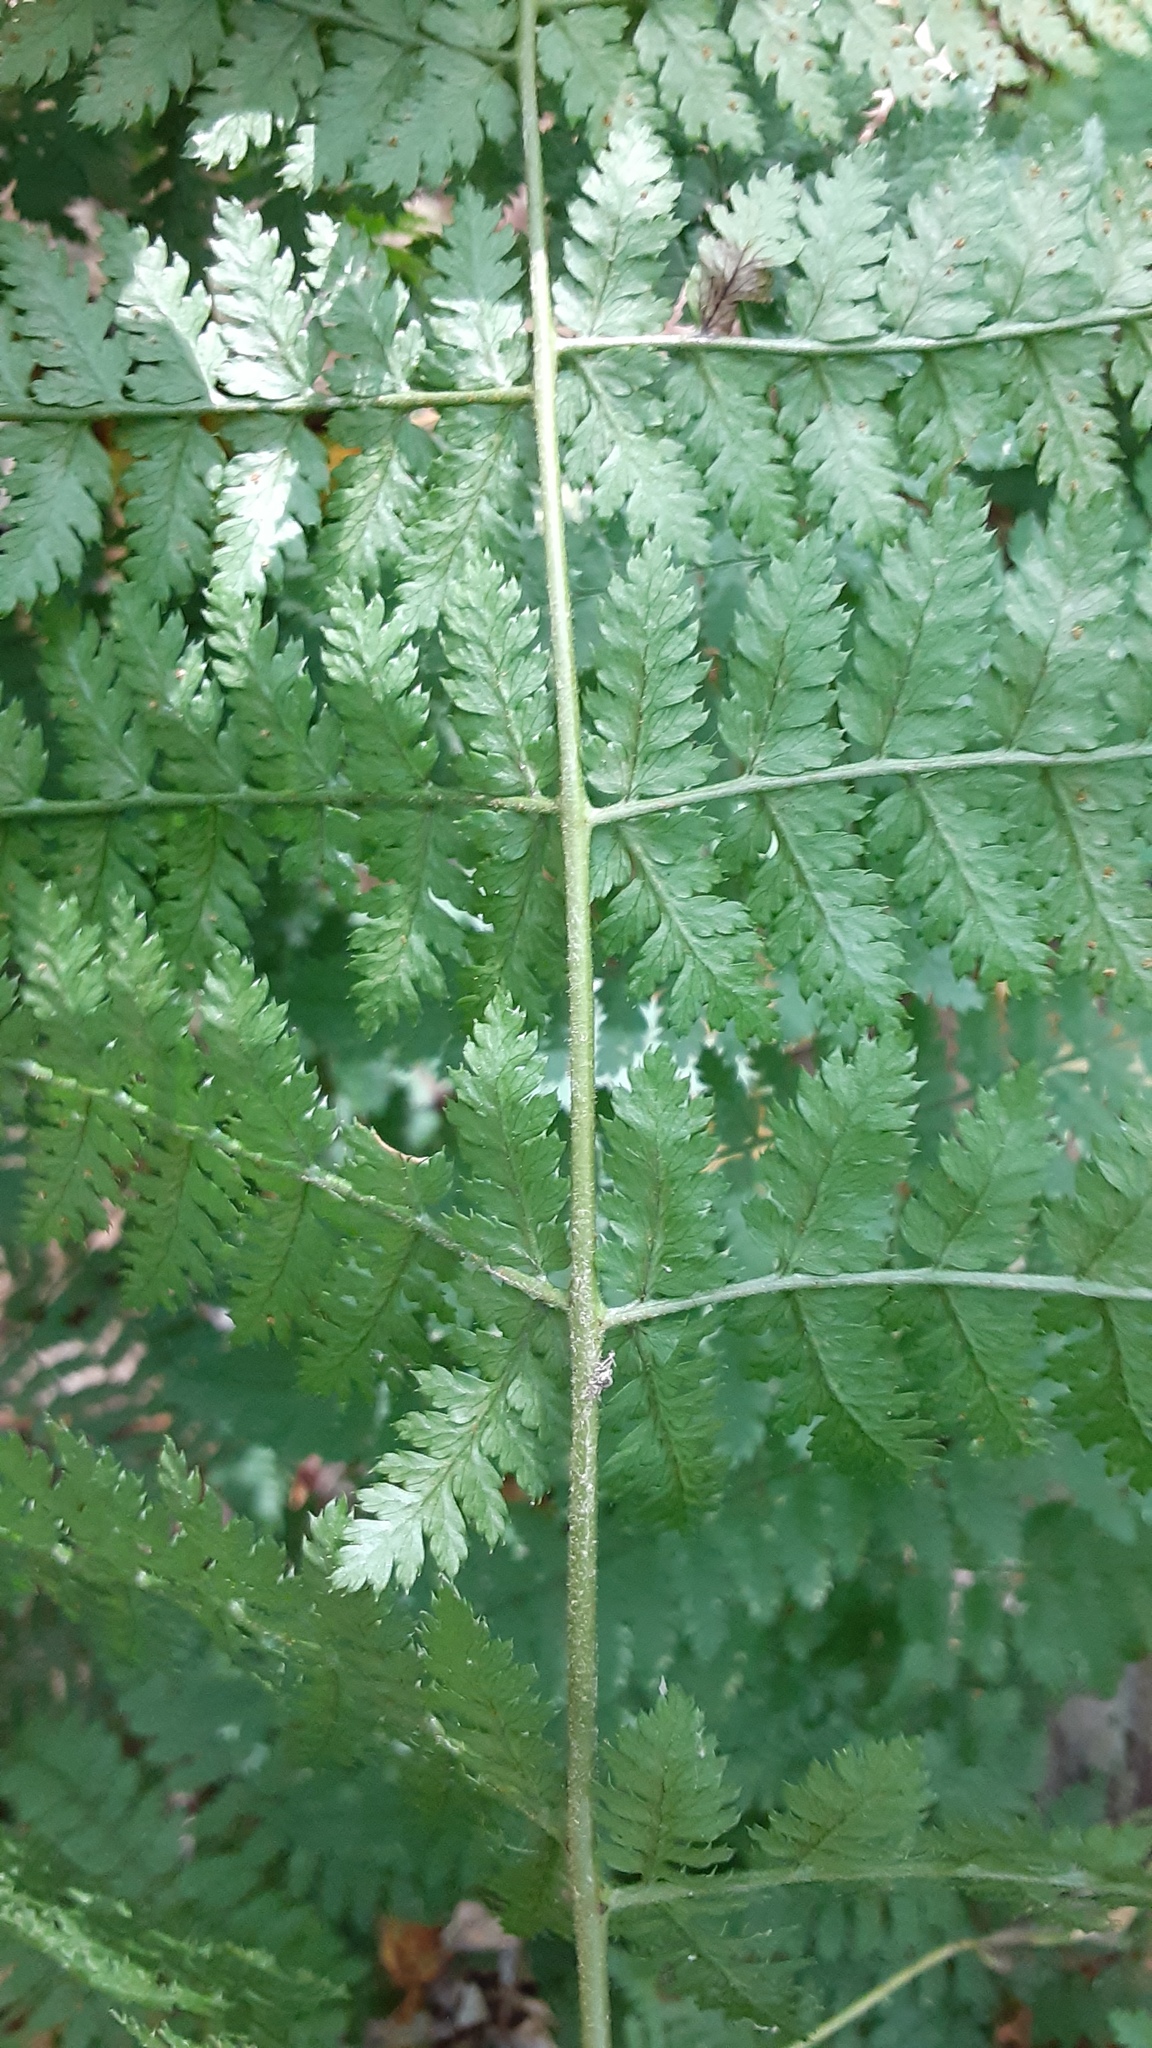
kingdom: Plantae
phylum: Tracheophyta
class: Polypodiopsida
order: Polypodiales
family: Dryopteridaceae
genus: Dryopteris
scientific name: Dryopteris intermedia
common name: Evergreen wood fern
